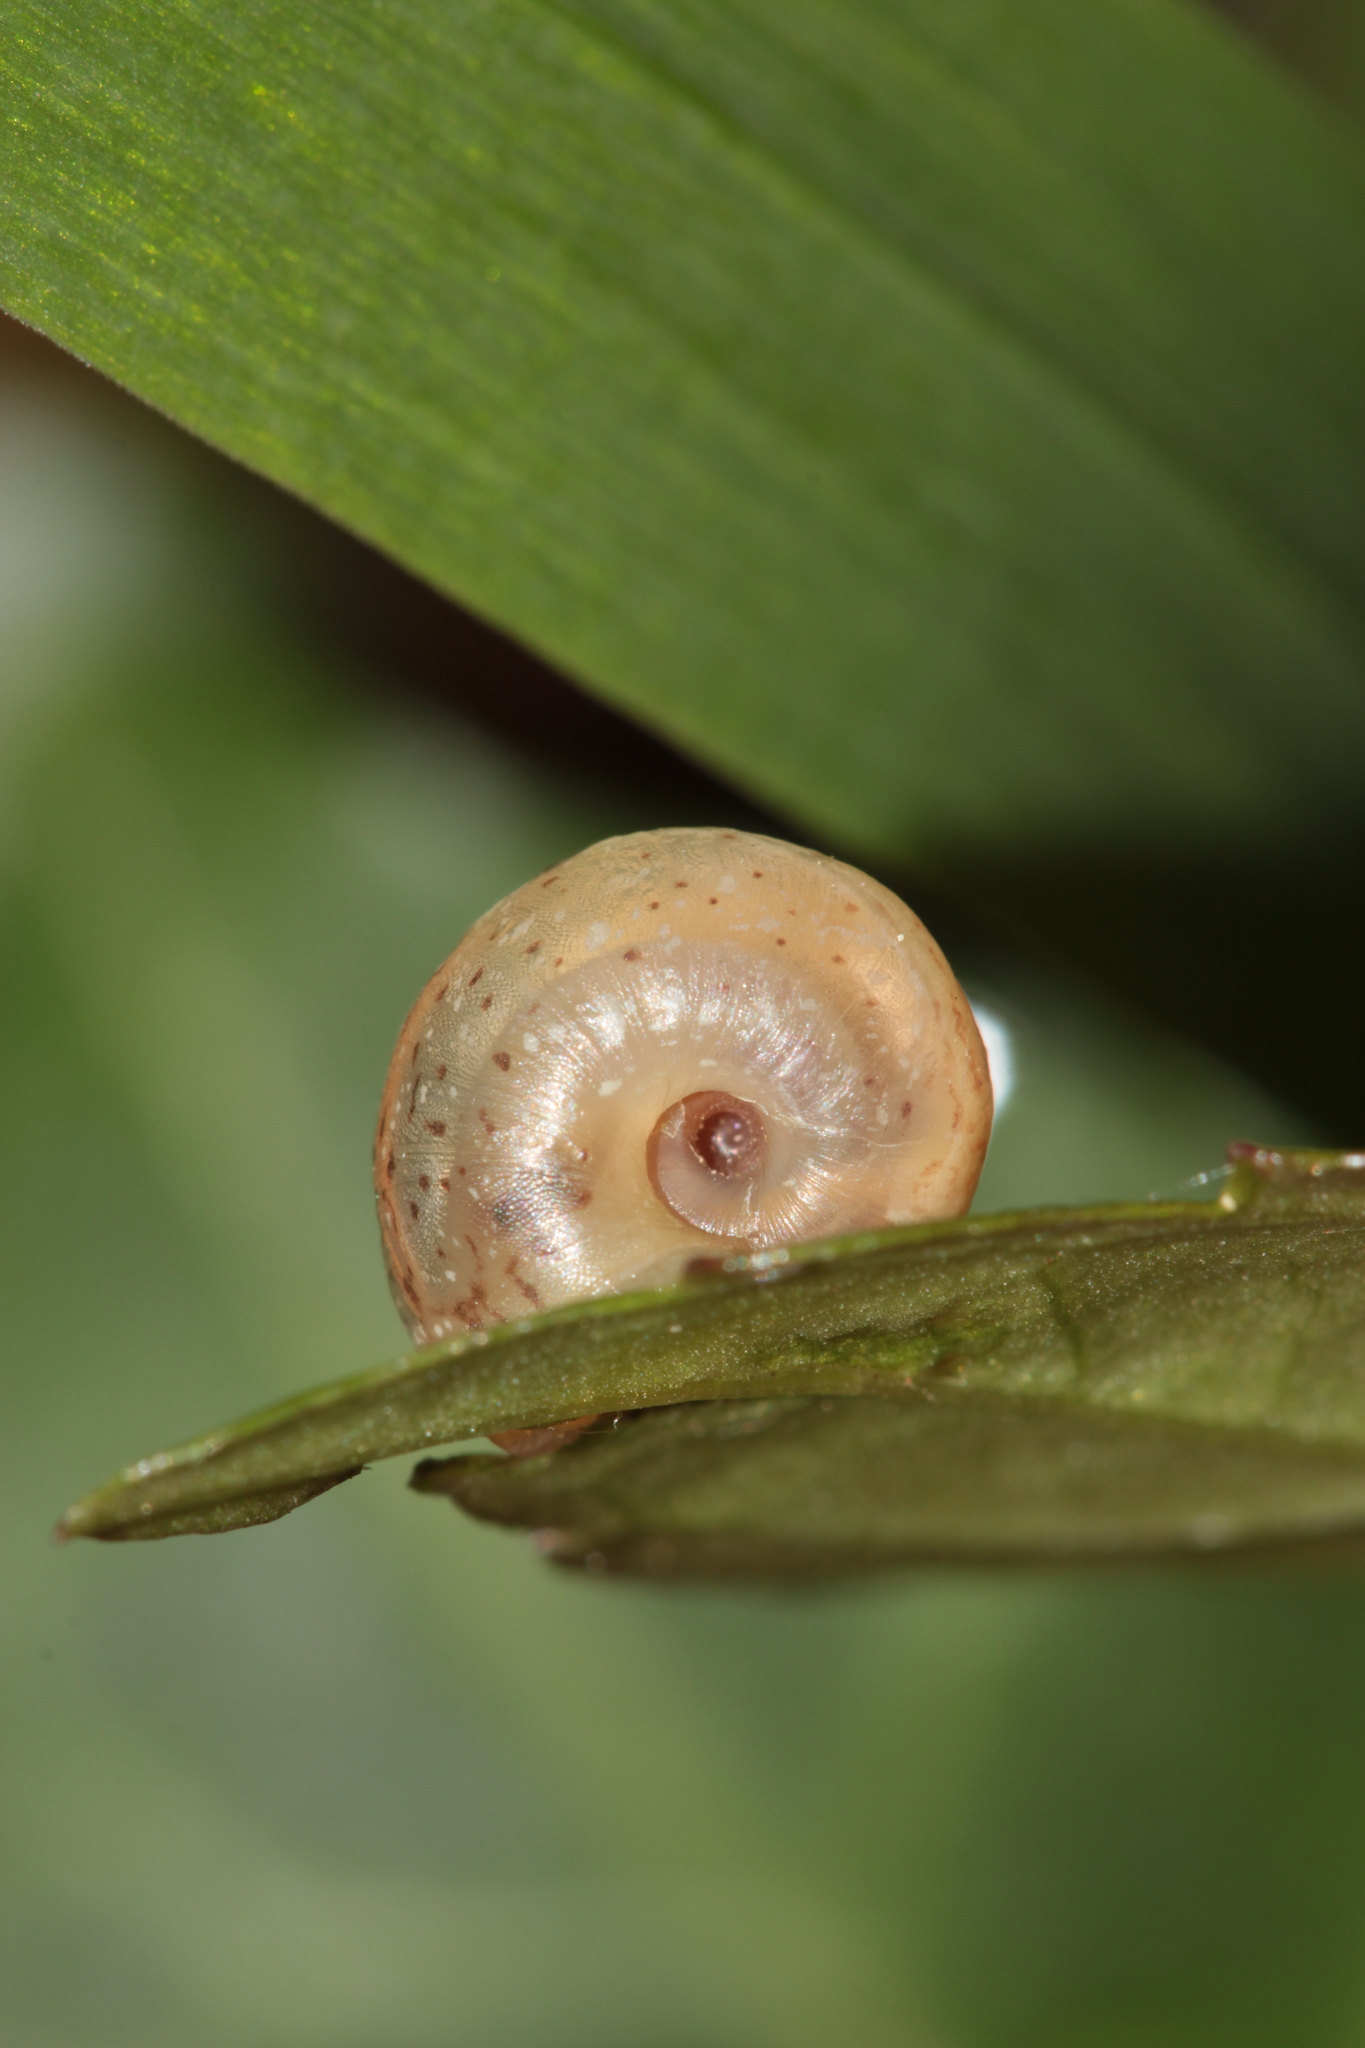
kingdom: Animalia
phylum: Mollusca
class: Gastropoda
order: Stylommatophora
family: Hygromiidae
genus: Urticicola
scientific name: Urticicola umbrosus
